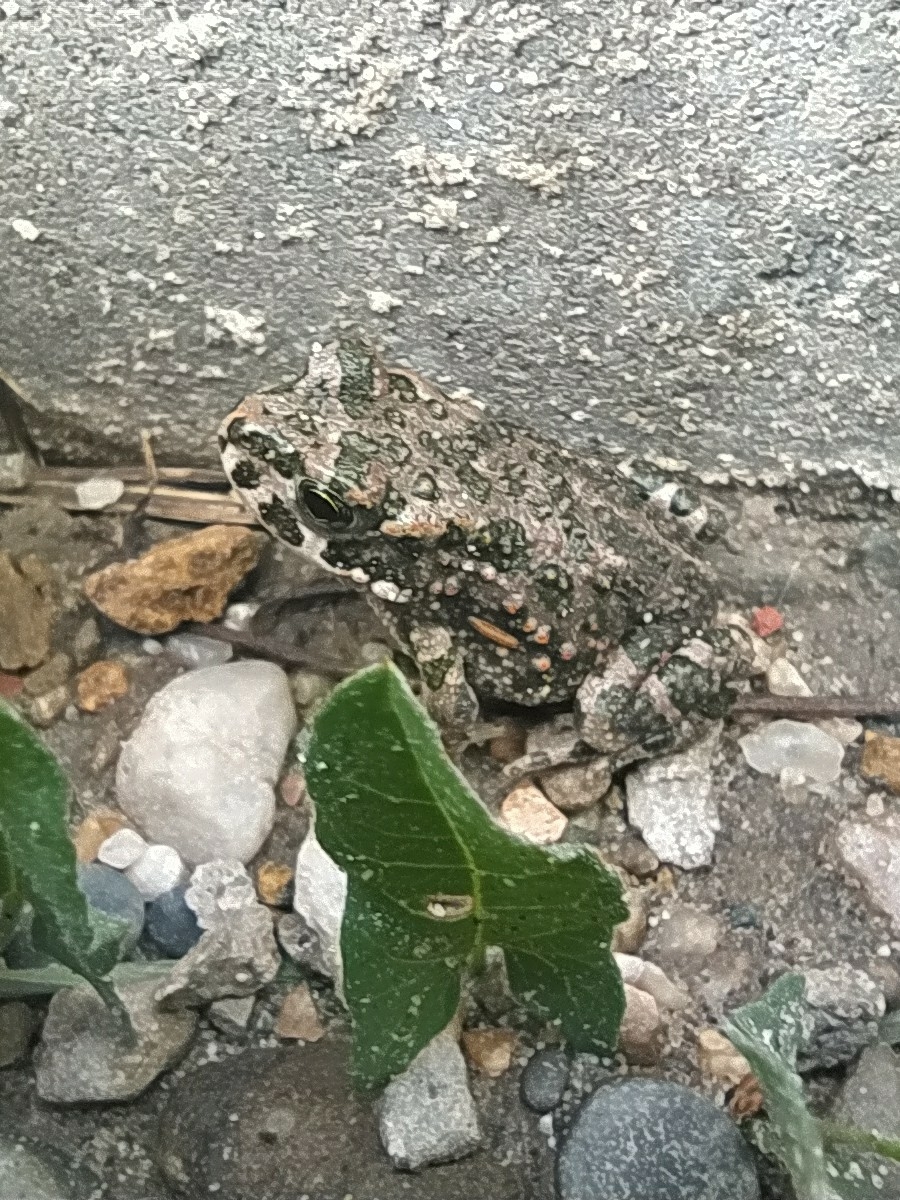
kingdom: Animalia
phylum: Chordata
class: Amphibia
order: Anura
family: Bufonidae
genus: Bufotes
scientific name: Bufotes viridis
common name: European green toad
